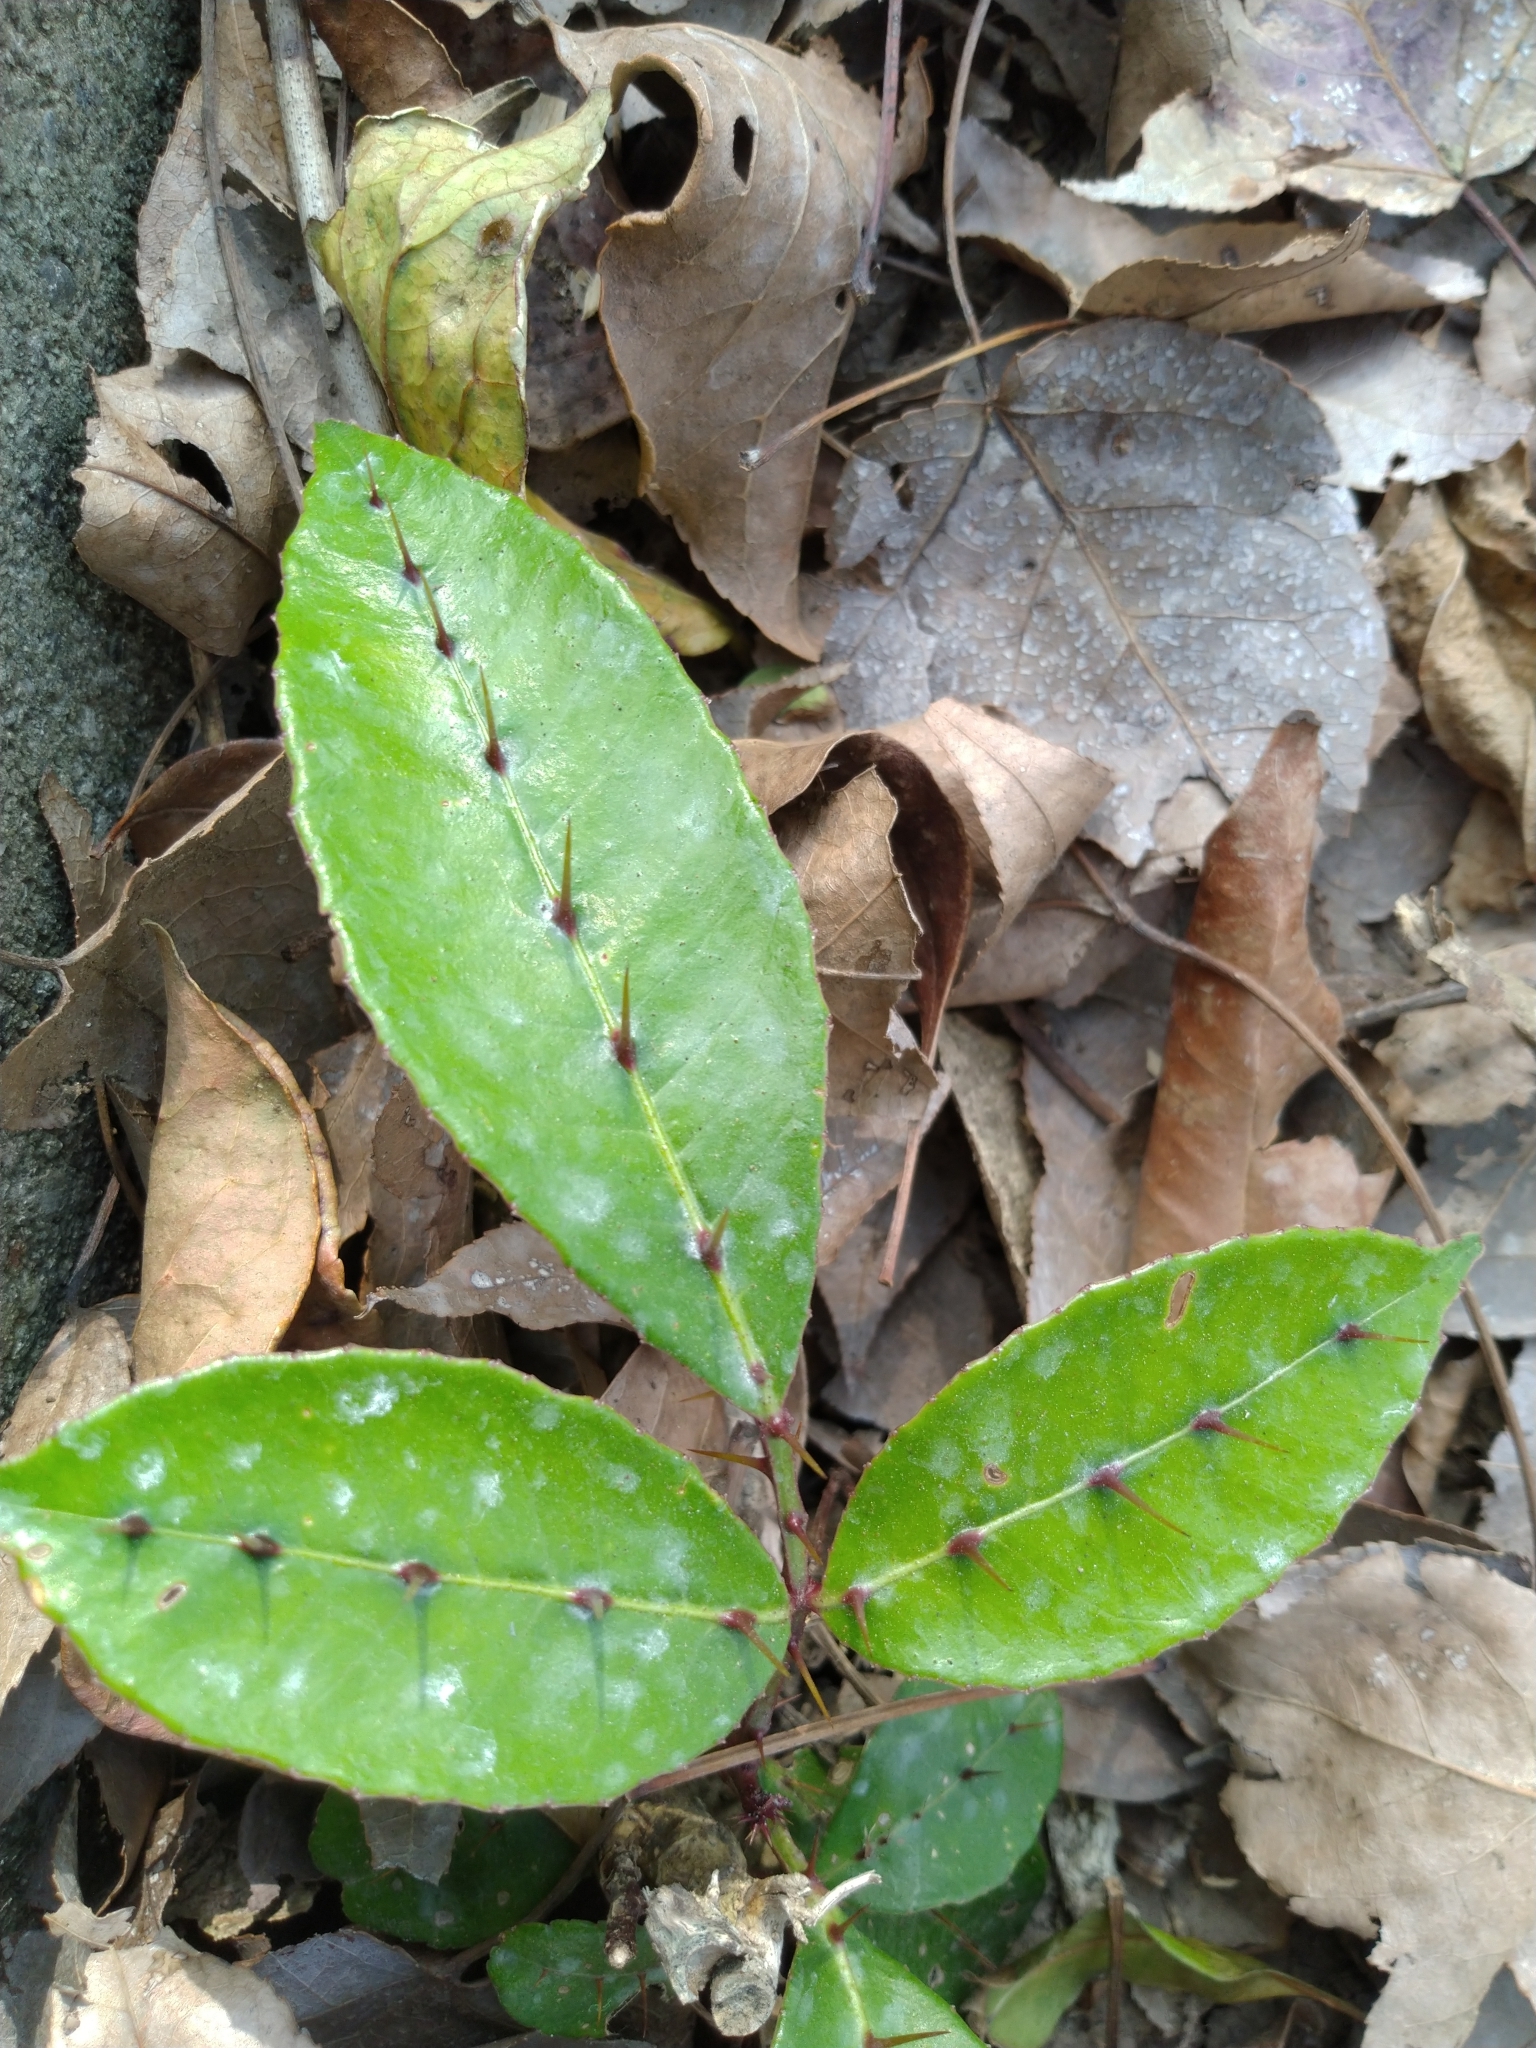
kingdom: Plantae
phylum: Tracheophyta
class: Magnoliopsida
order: Sapindales
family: Rutaceae
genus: Zanthoxylum
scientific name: Zanthoxylum nitidum
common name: Shiny-leaf prickly-ash
